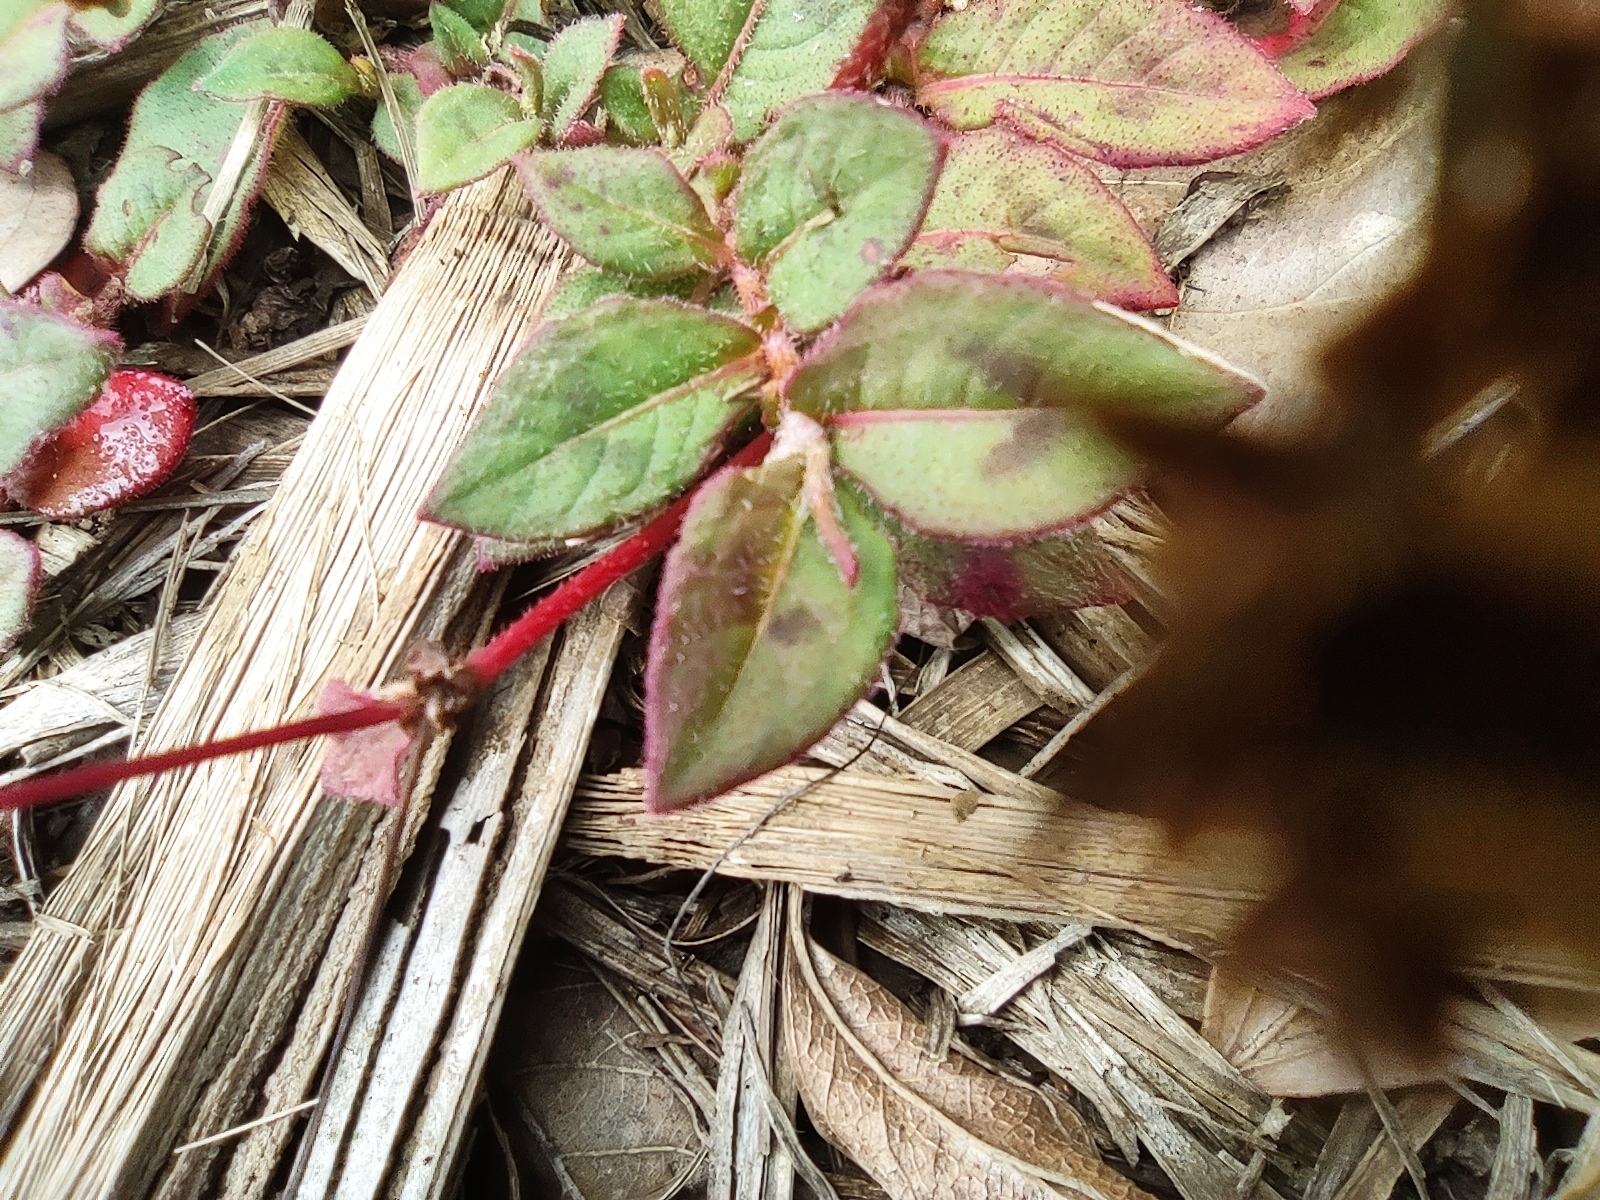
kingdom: Plantae
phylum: Tracheophyta
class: Magnoliopsida
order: Caryophyllales
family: Polygonaceae
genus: Persicaria
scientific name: Persicaria capitata
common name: Pinkhead smartweed
